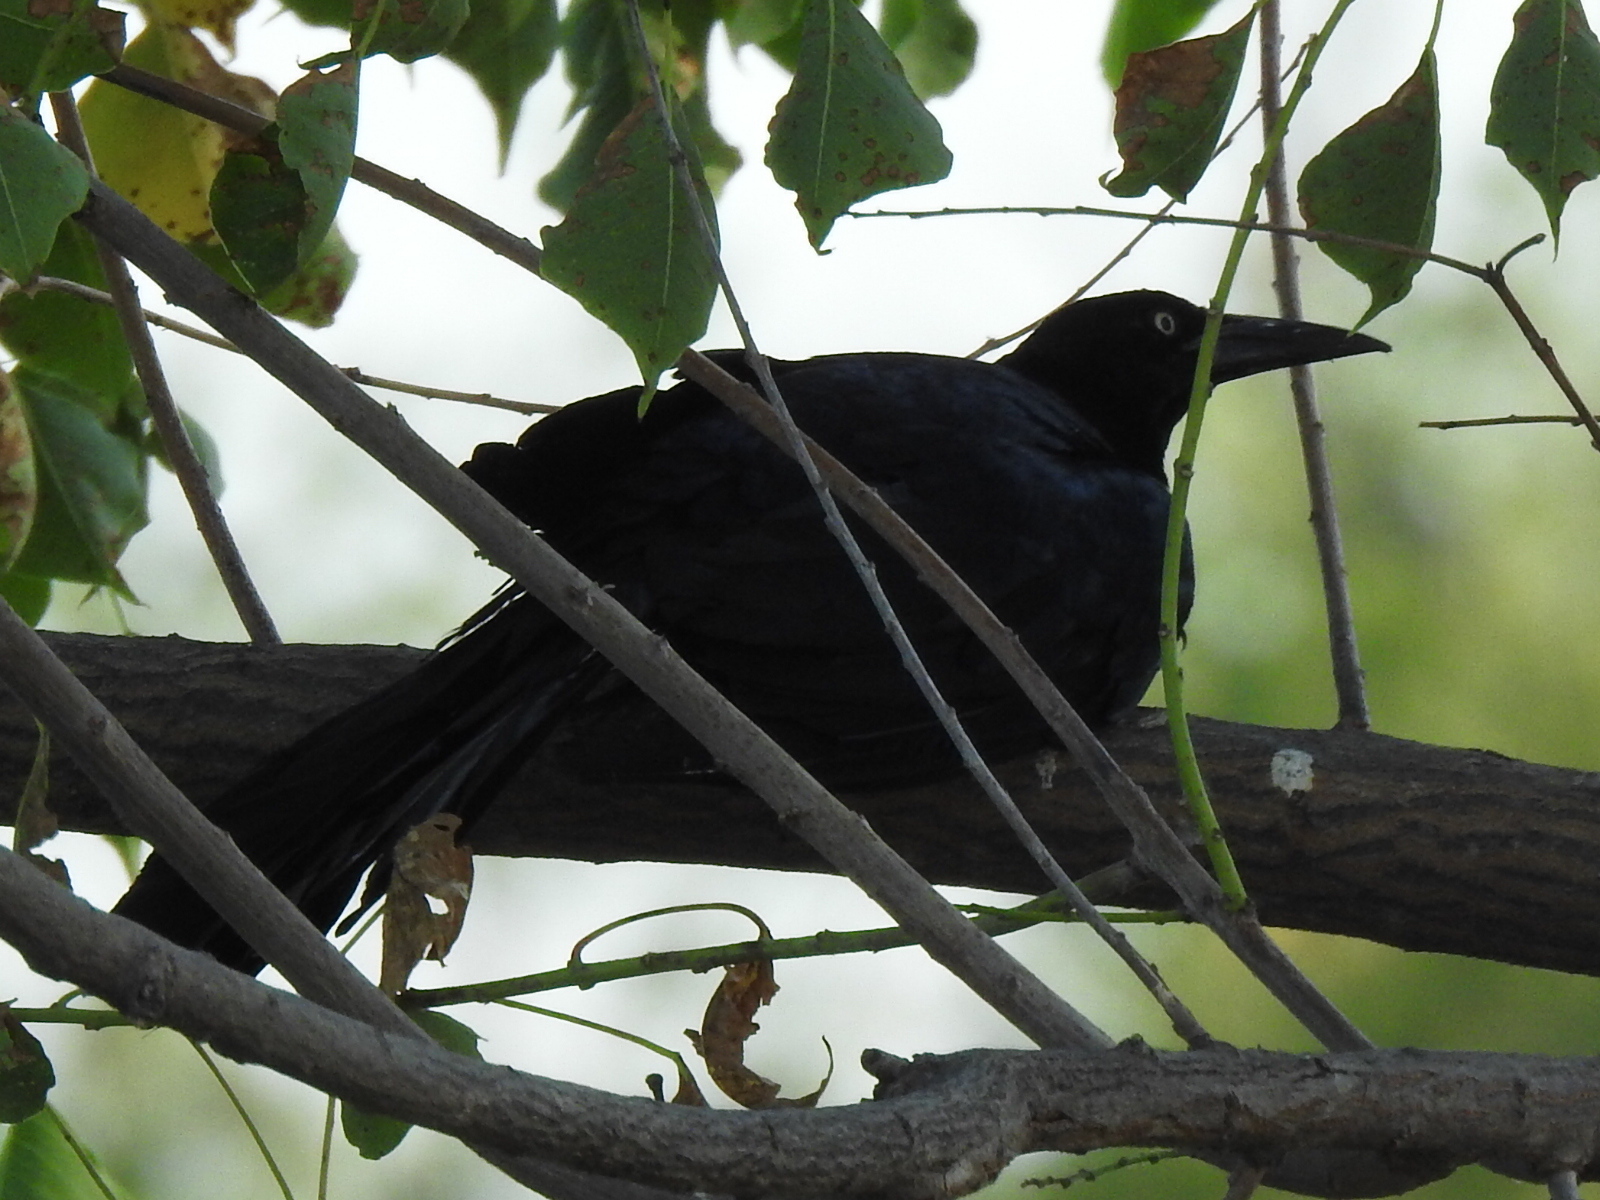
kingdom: Animalia
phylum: Chordata
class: Aves
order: Passeriformes
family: Icteridae
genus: Quiscalus
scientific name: Quiscalus mexicanus
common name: Great-tailed grackle
